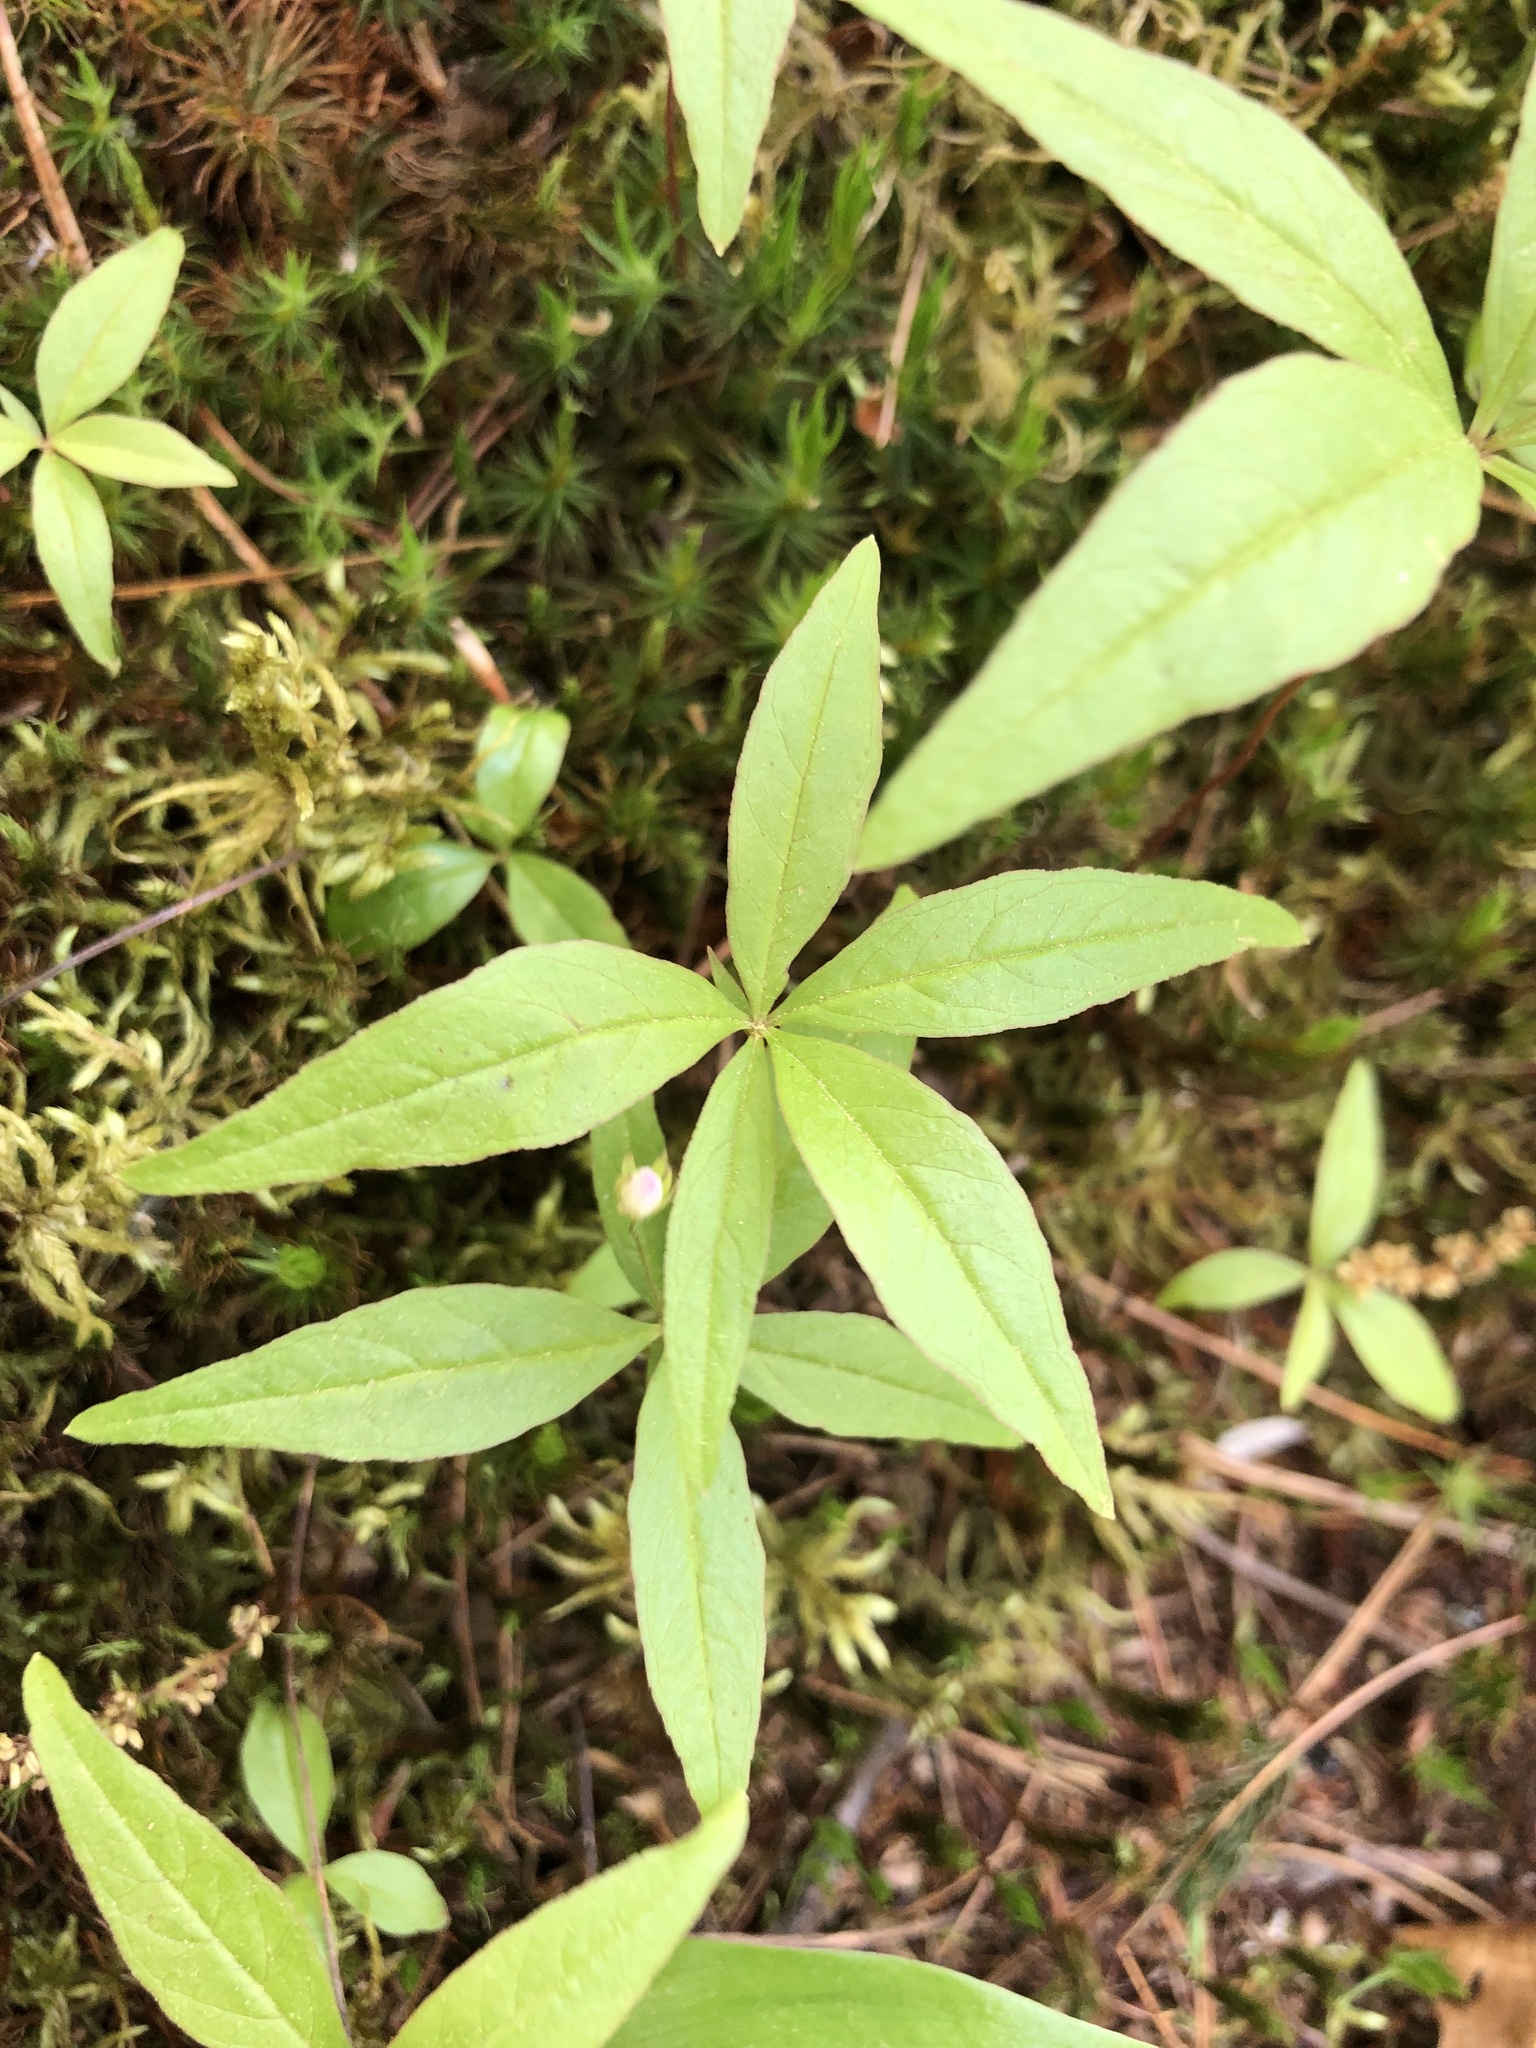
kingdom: Plantae
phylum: Tracheophyta
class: Magnoliopsida
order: Ericales
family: Primulaceae
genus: Lysimachia
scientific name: Lysimachia borealis
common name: American starflower
